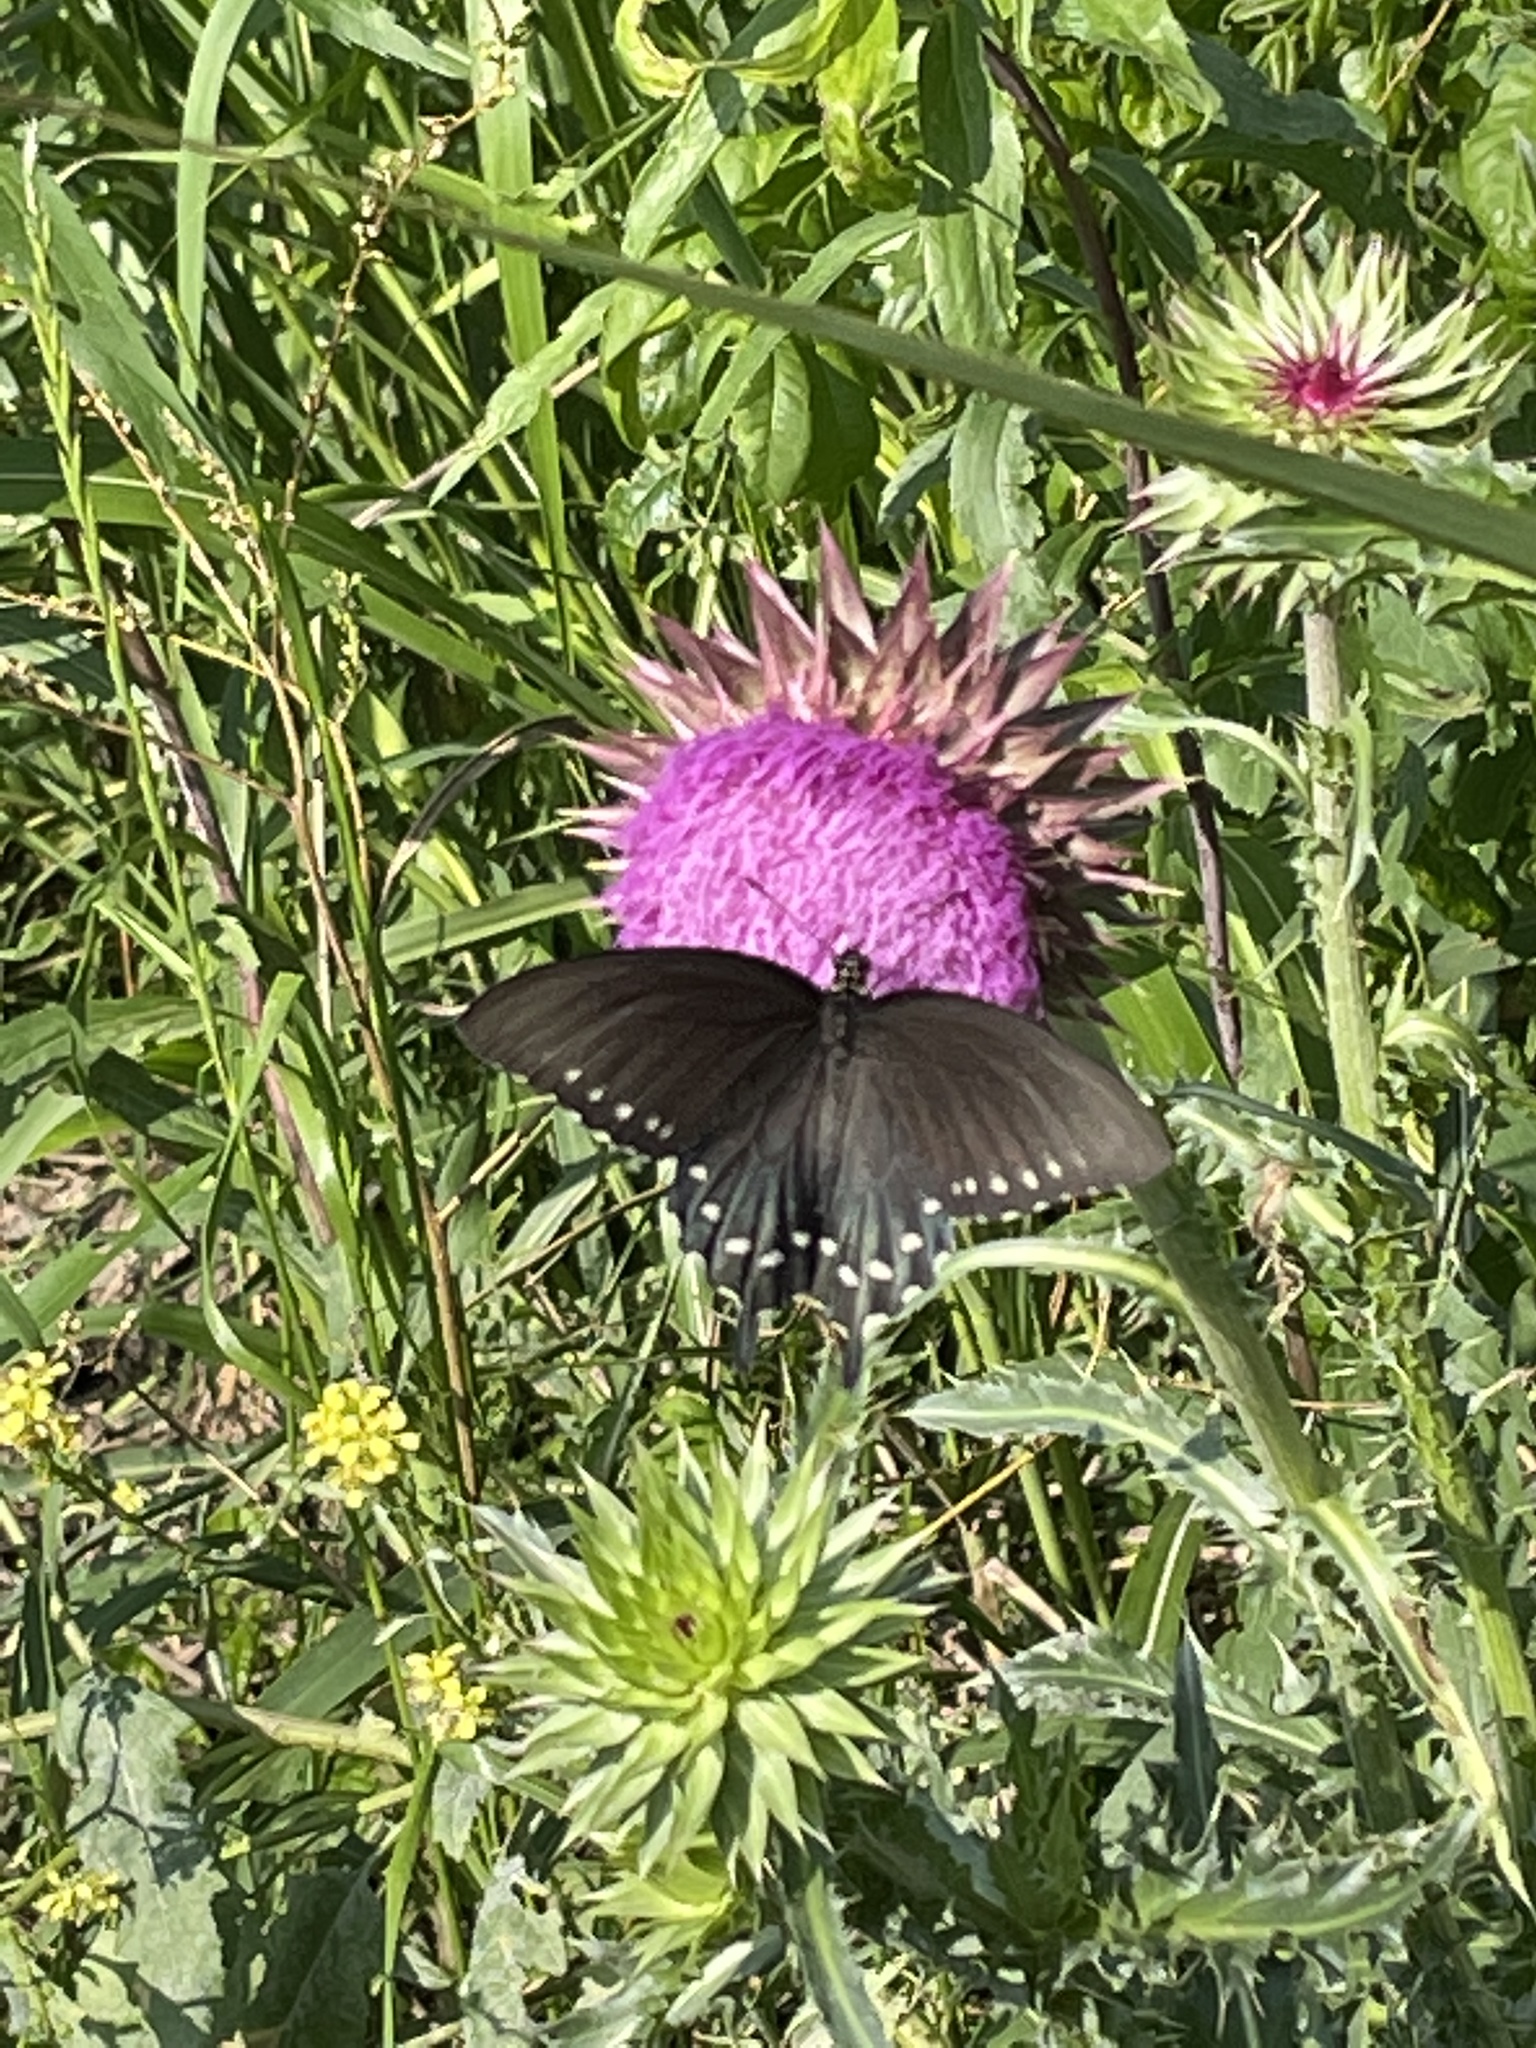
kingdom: Animalia
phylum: Arthropoda
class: Insecta
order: Lepidoptera
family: Papilionidae
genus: Battus
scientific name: Battus philenor
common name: Pipevine swallowtail
